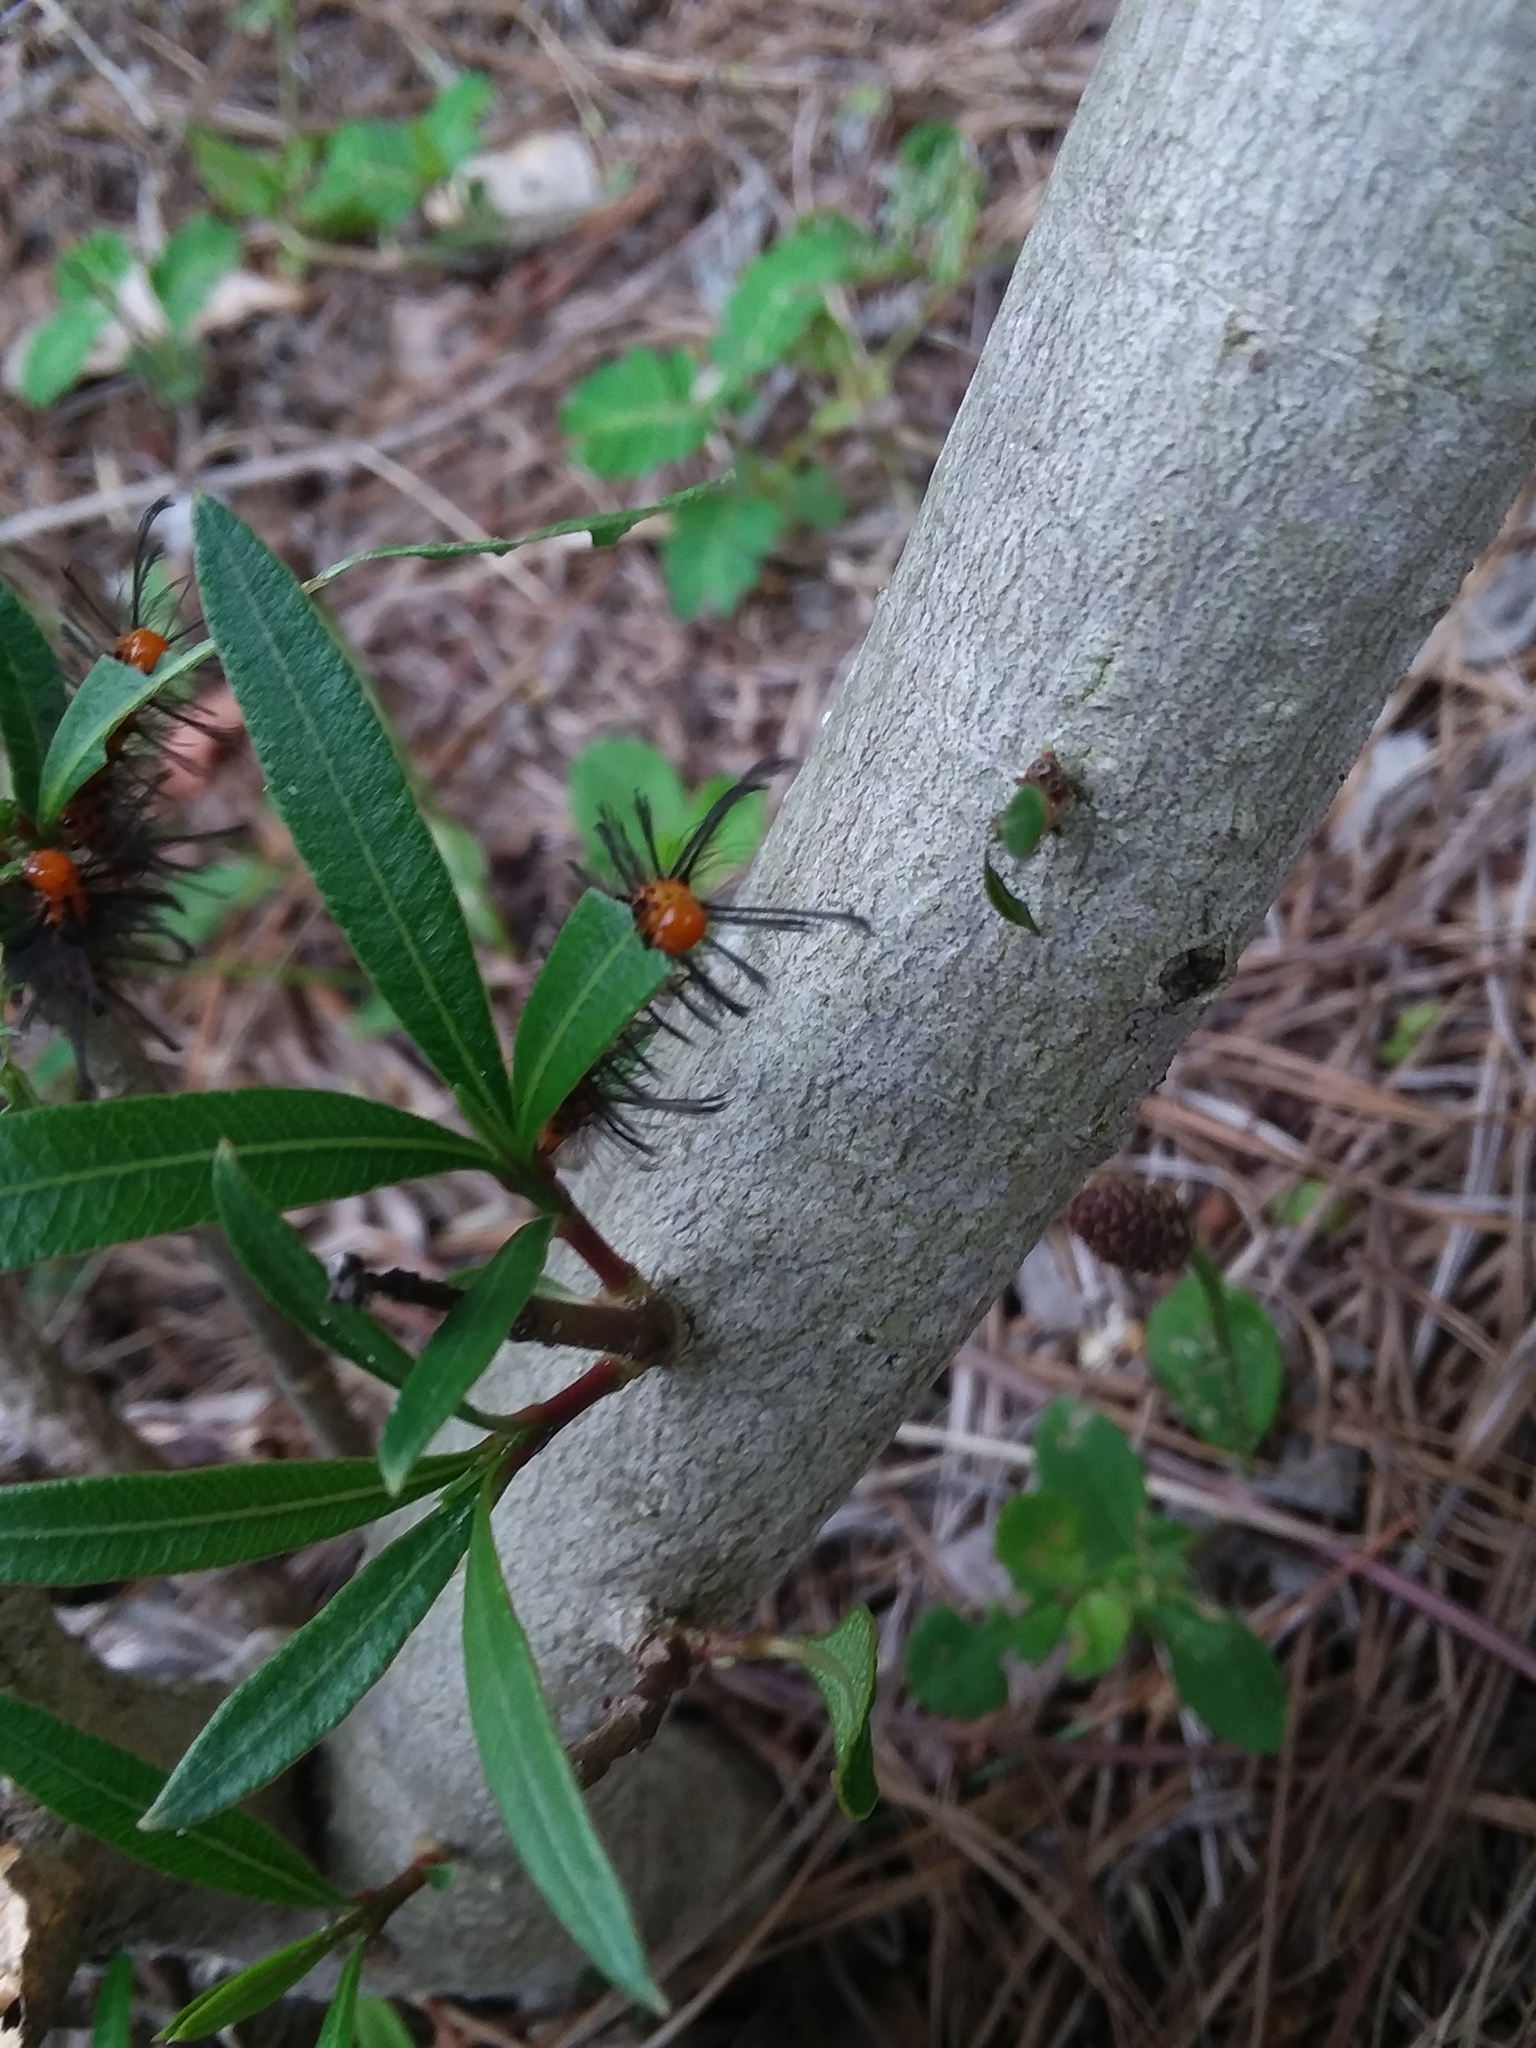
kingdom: Animalia
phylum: Arthropoda
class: Insecta
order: Lepidoptera
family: Erebidae
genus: Syntomeida
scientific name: Syntomeida epilais
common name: Polka-dot wasp moth
